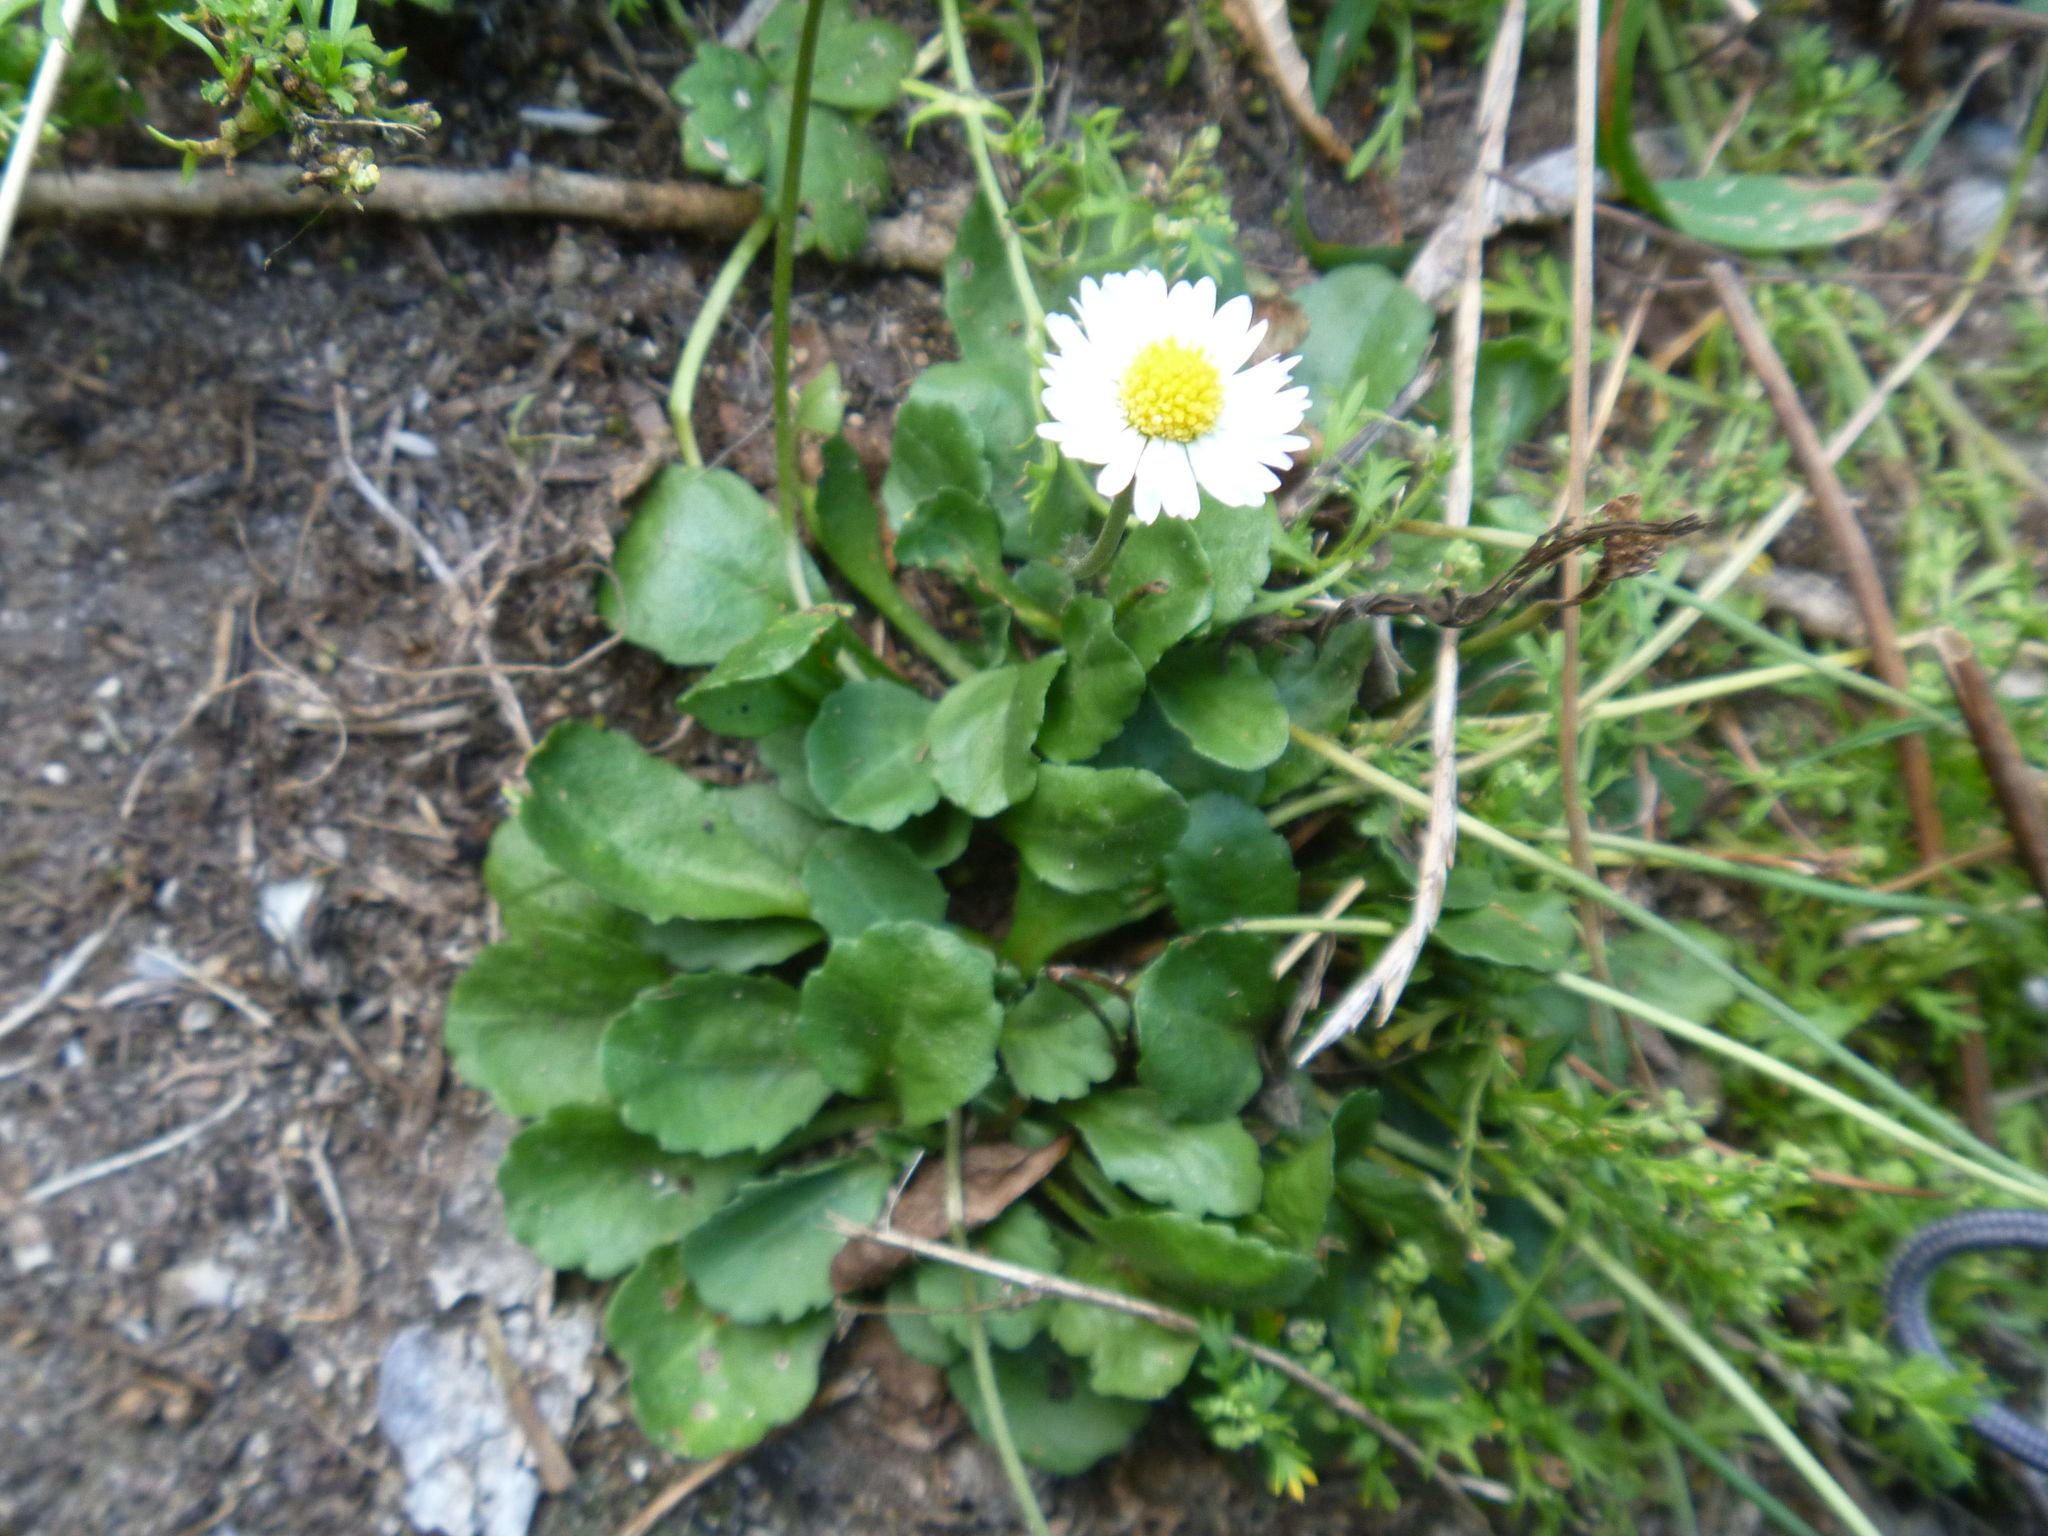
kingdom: Plantae
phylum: Tracheophyta
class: Magnoliopsida
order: Asterales
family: Asteraceae
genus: Bellis
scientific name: Bellis perennis
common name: Lawndaisy
